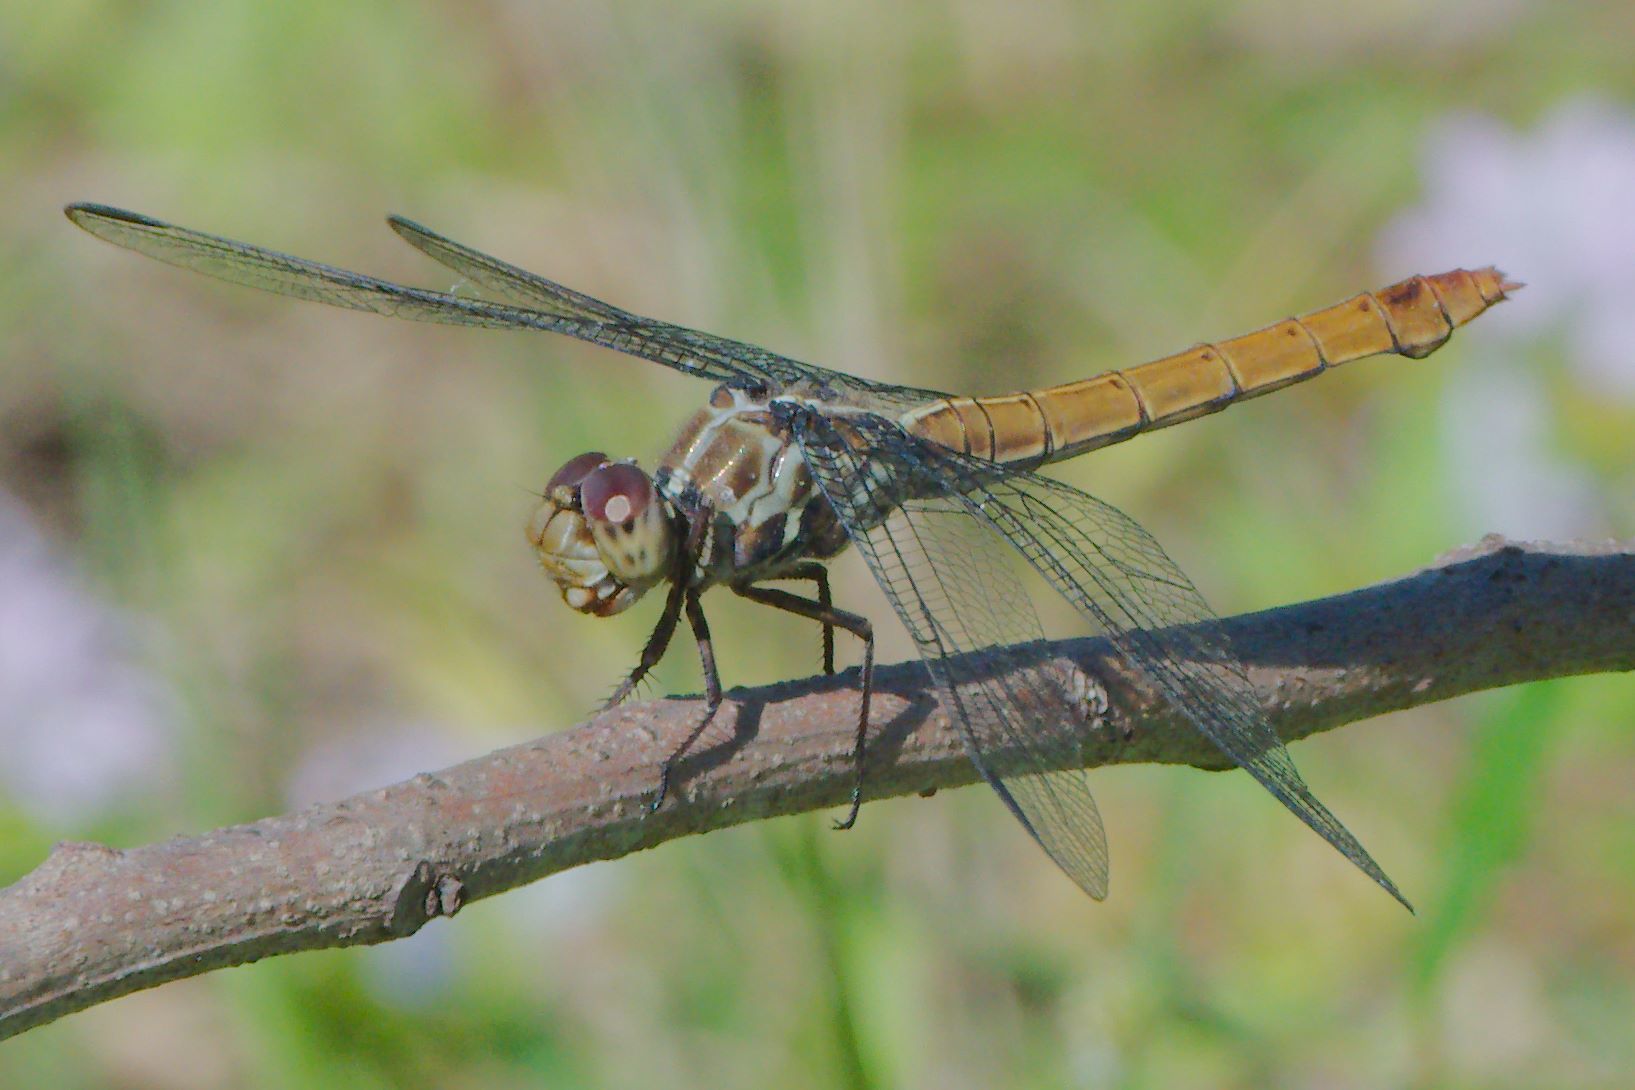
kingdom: Animalia
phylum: Arthropoda
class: Insecta
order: Odonata
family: Libellulidae
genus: Orthemis
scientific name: Orthemis ferruginea
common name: Roseate skimmer
